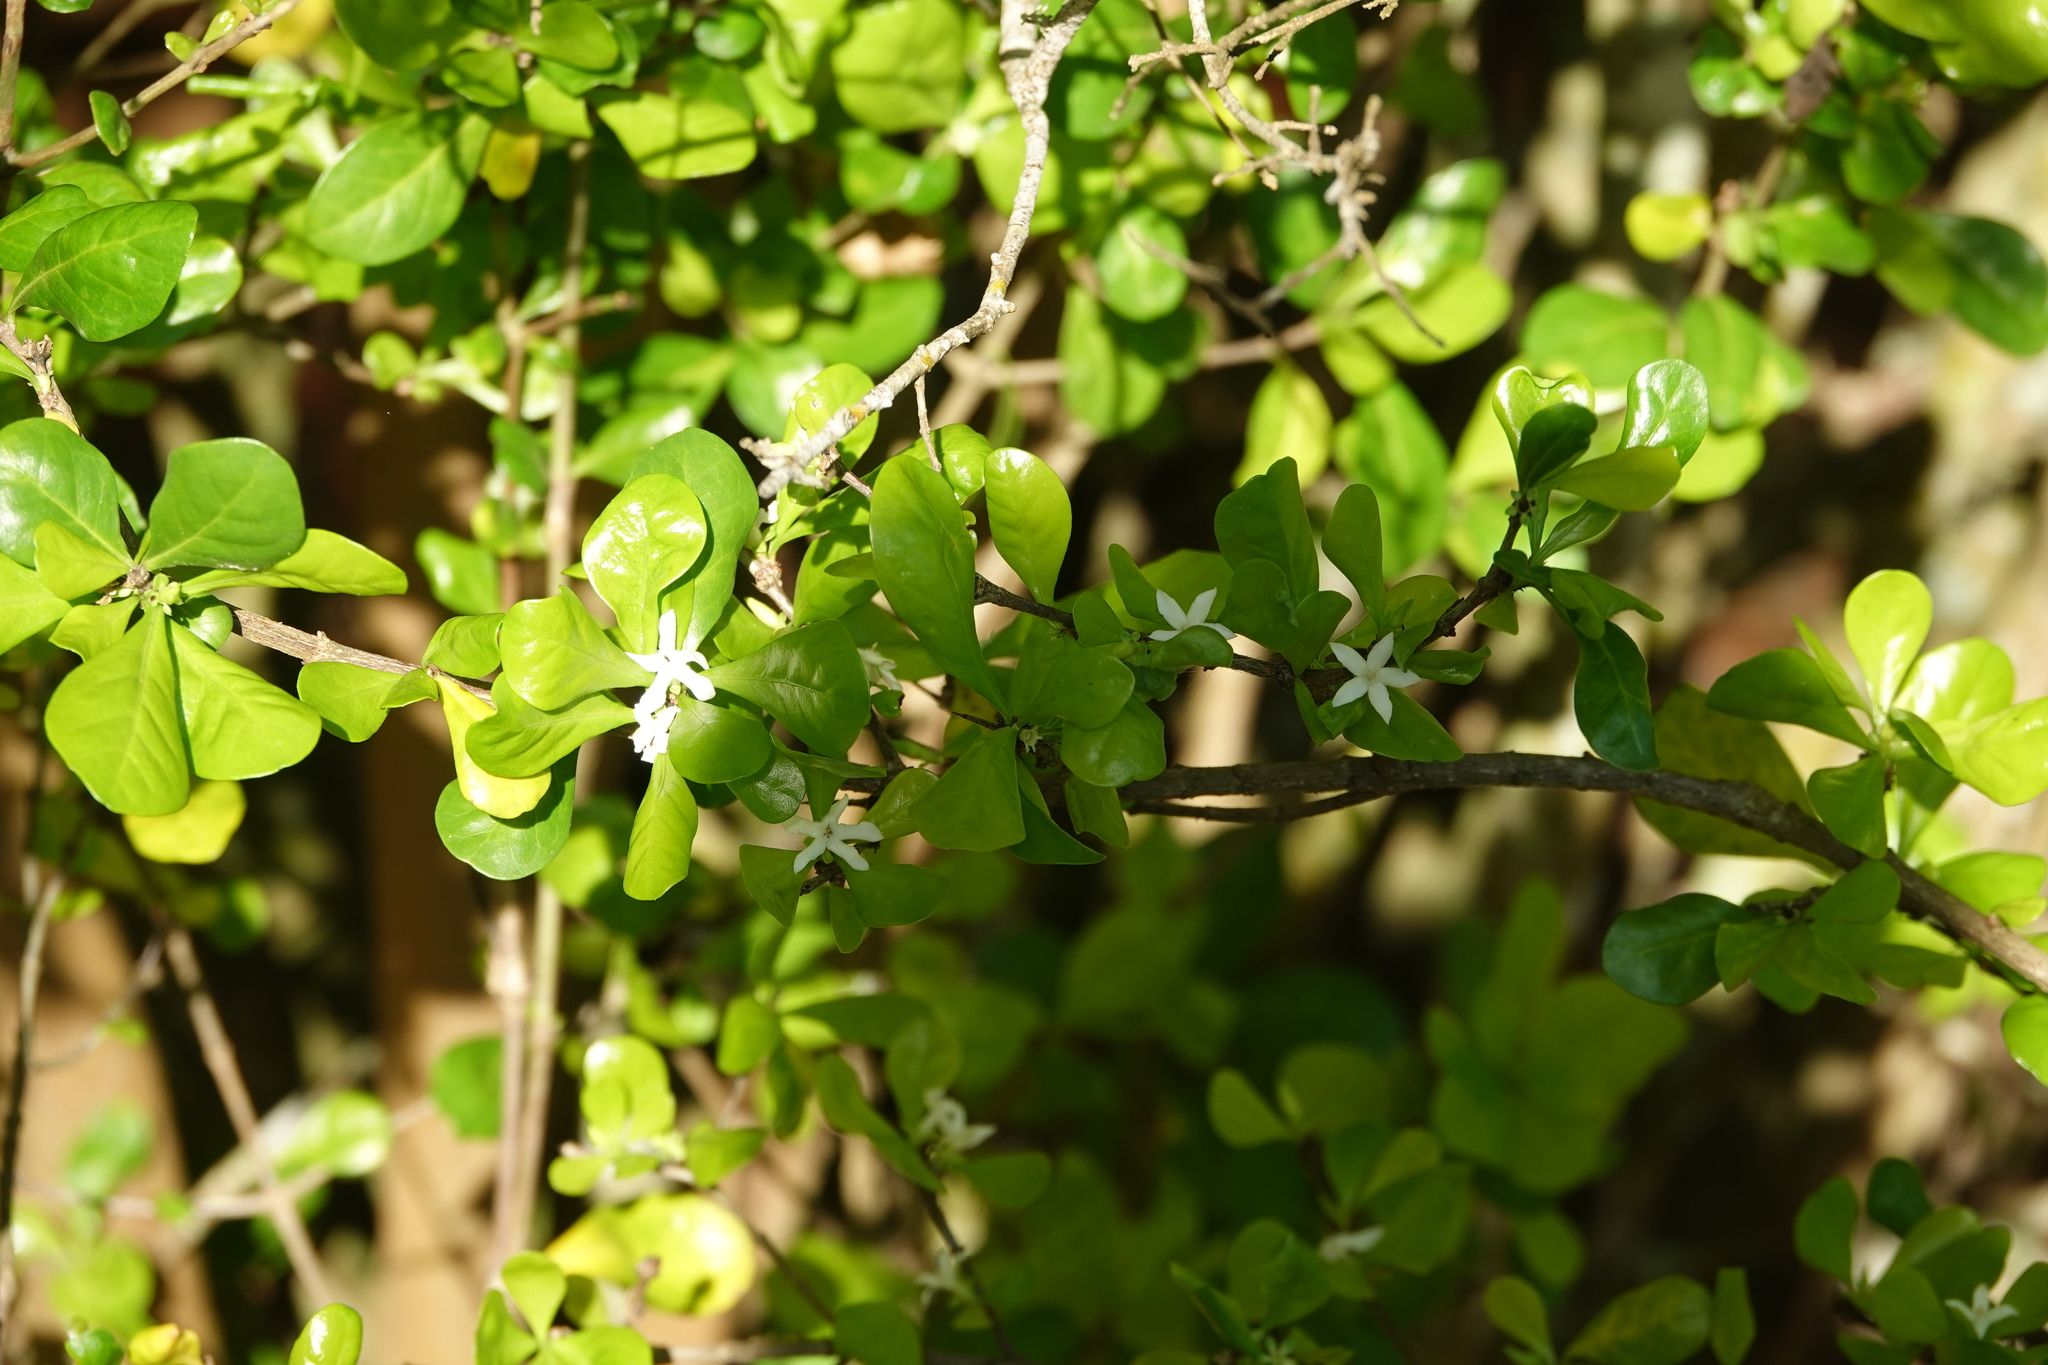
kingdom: Plantae
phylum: Tracheophyta
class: Magnoliopsida
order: Gentianales
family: Rubiaceae
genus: Randia
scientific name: Randia aculeata
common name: Inkberry
